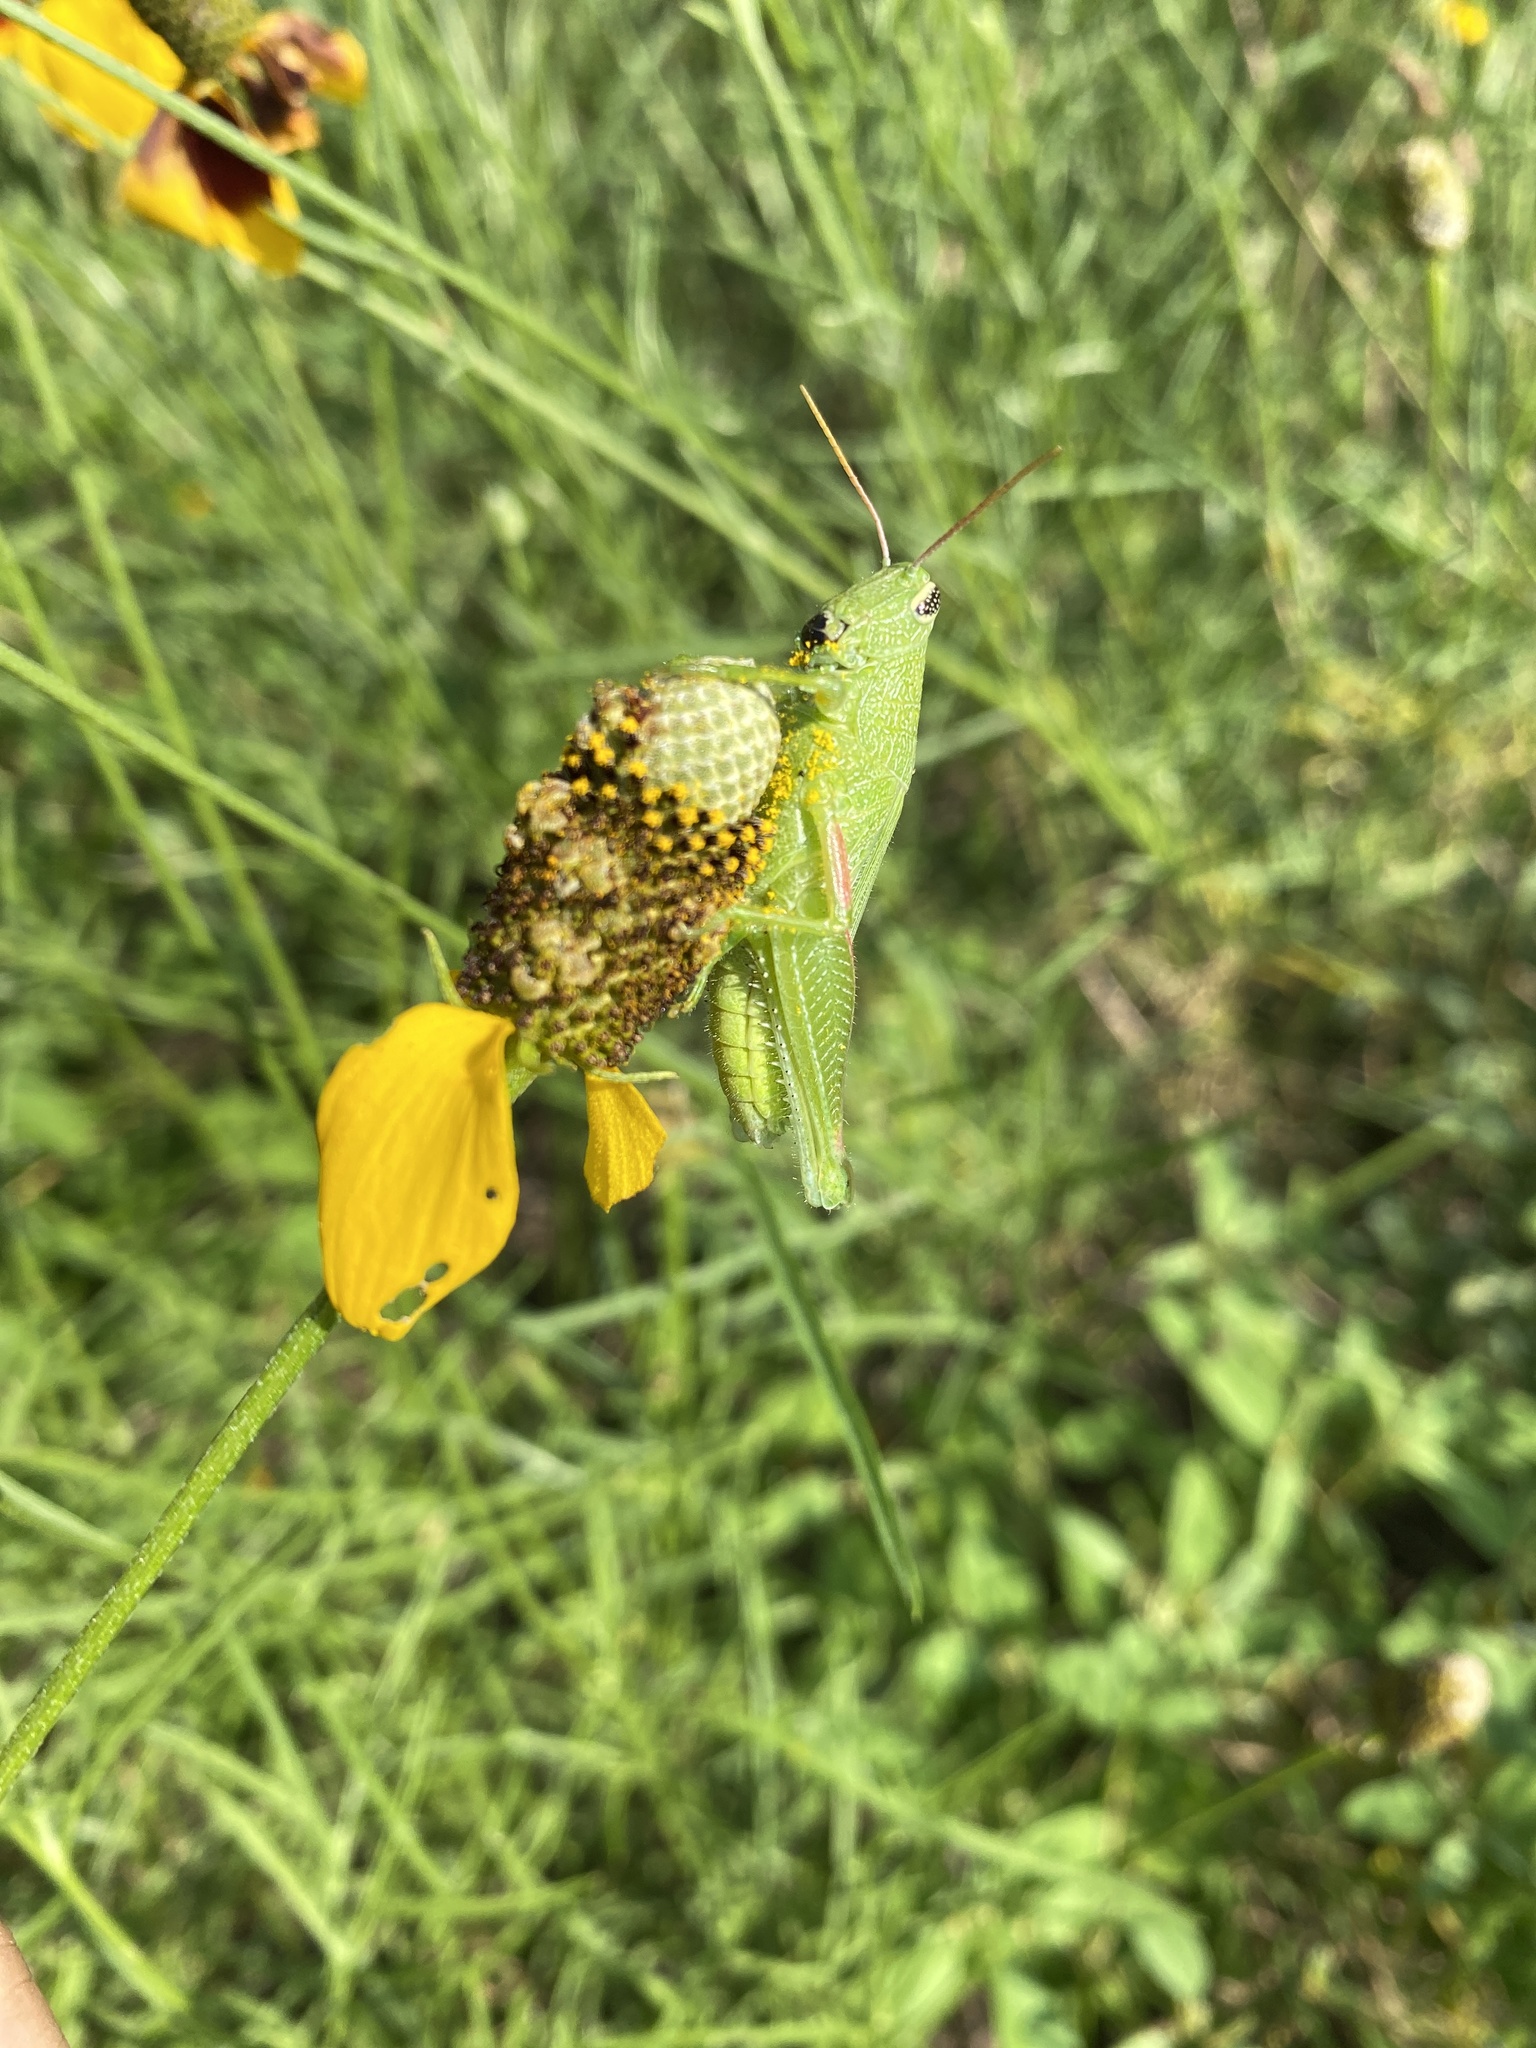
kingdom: Animalia
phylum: Arthropoda
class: Insecta
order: Orthoptera
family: Acrididae
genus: Hesperotettix
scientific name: Hesperotettix speciosus
